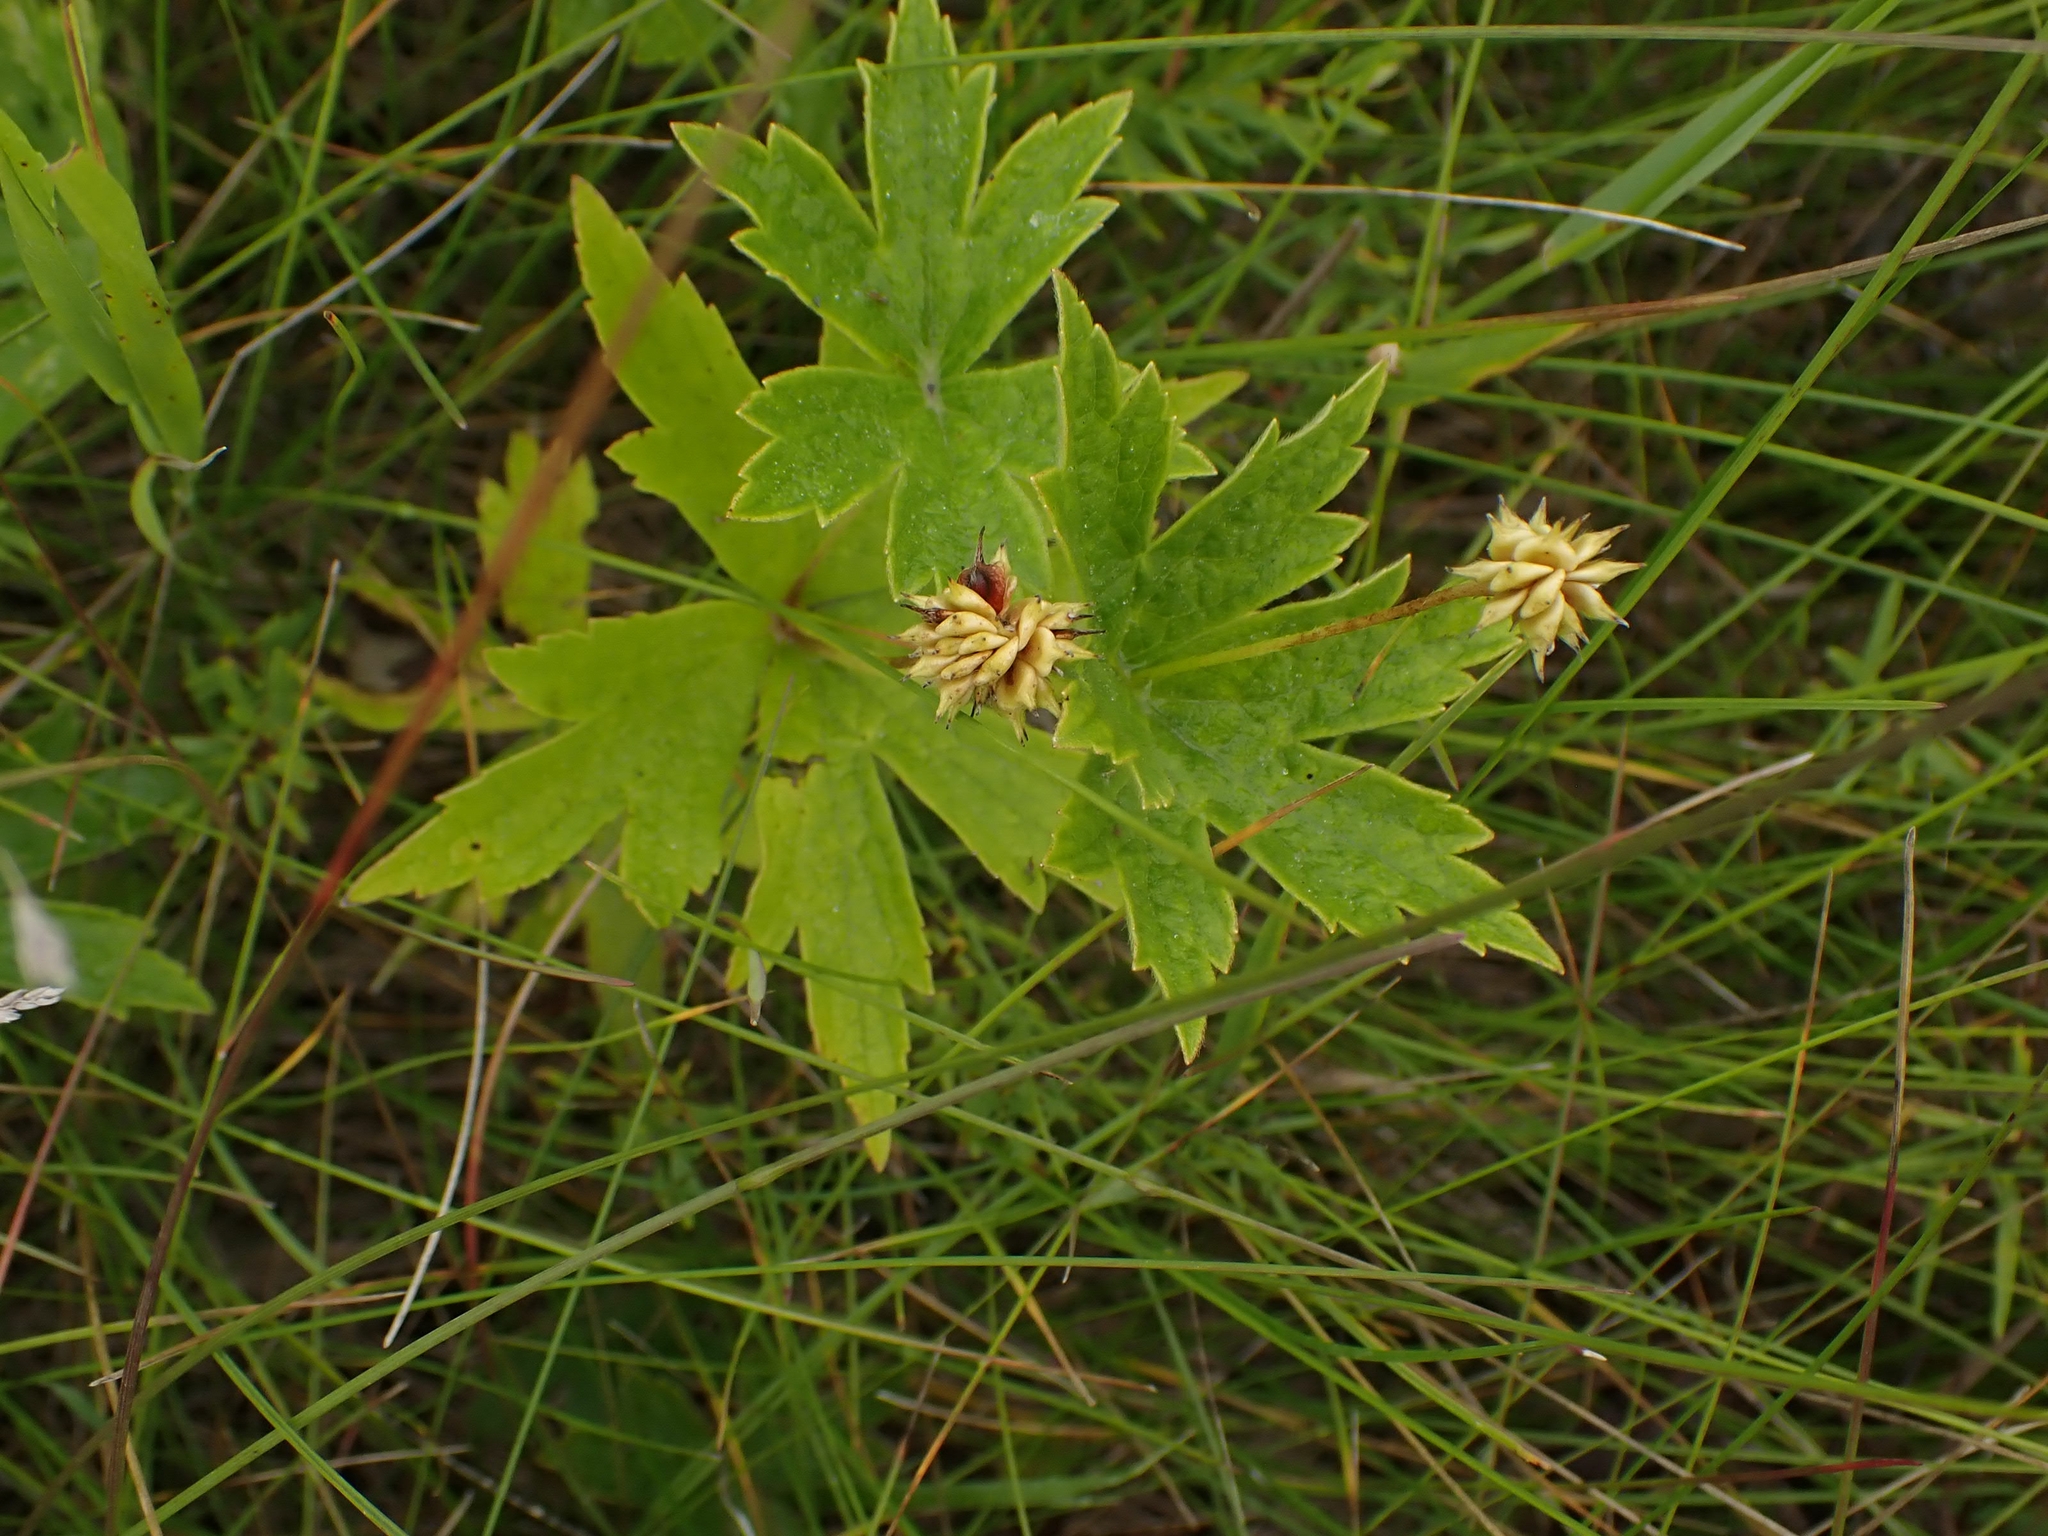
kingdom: Plantae
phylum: Tracheophyta
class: Magnoliopsida
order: Ranunculales
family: Ranunculaceae
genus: Anemonastrum
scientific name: Anemonastrum canadense
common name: Canada anemone
